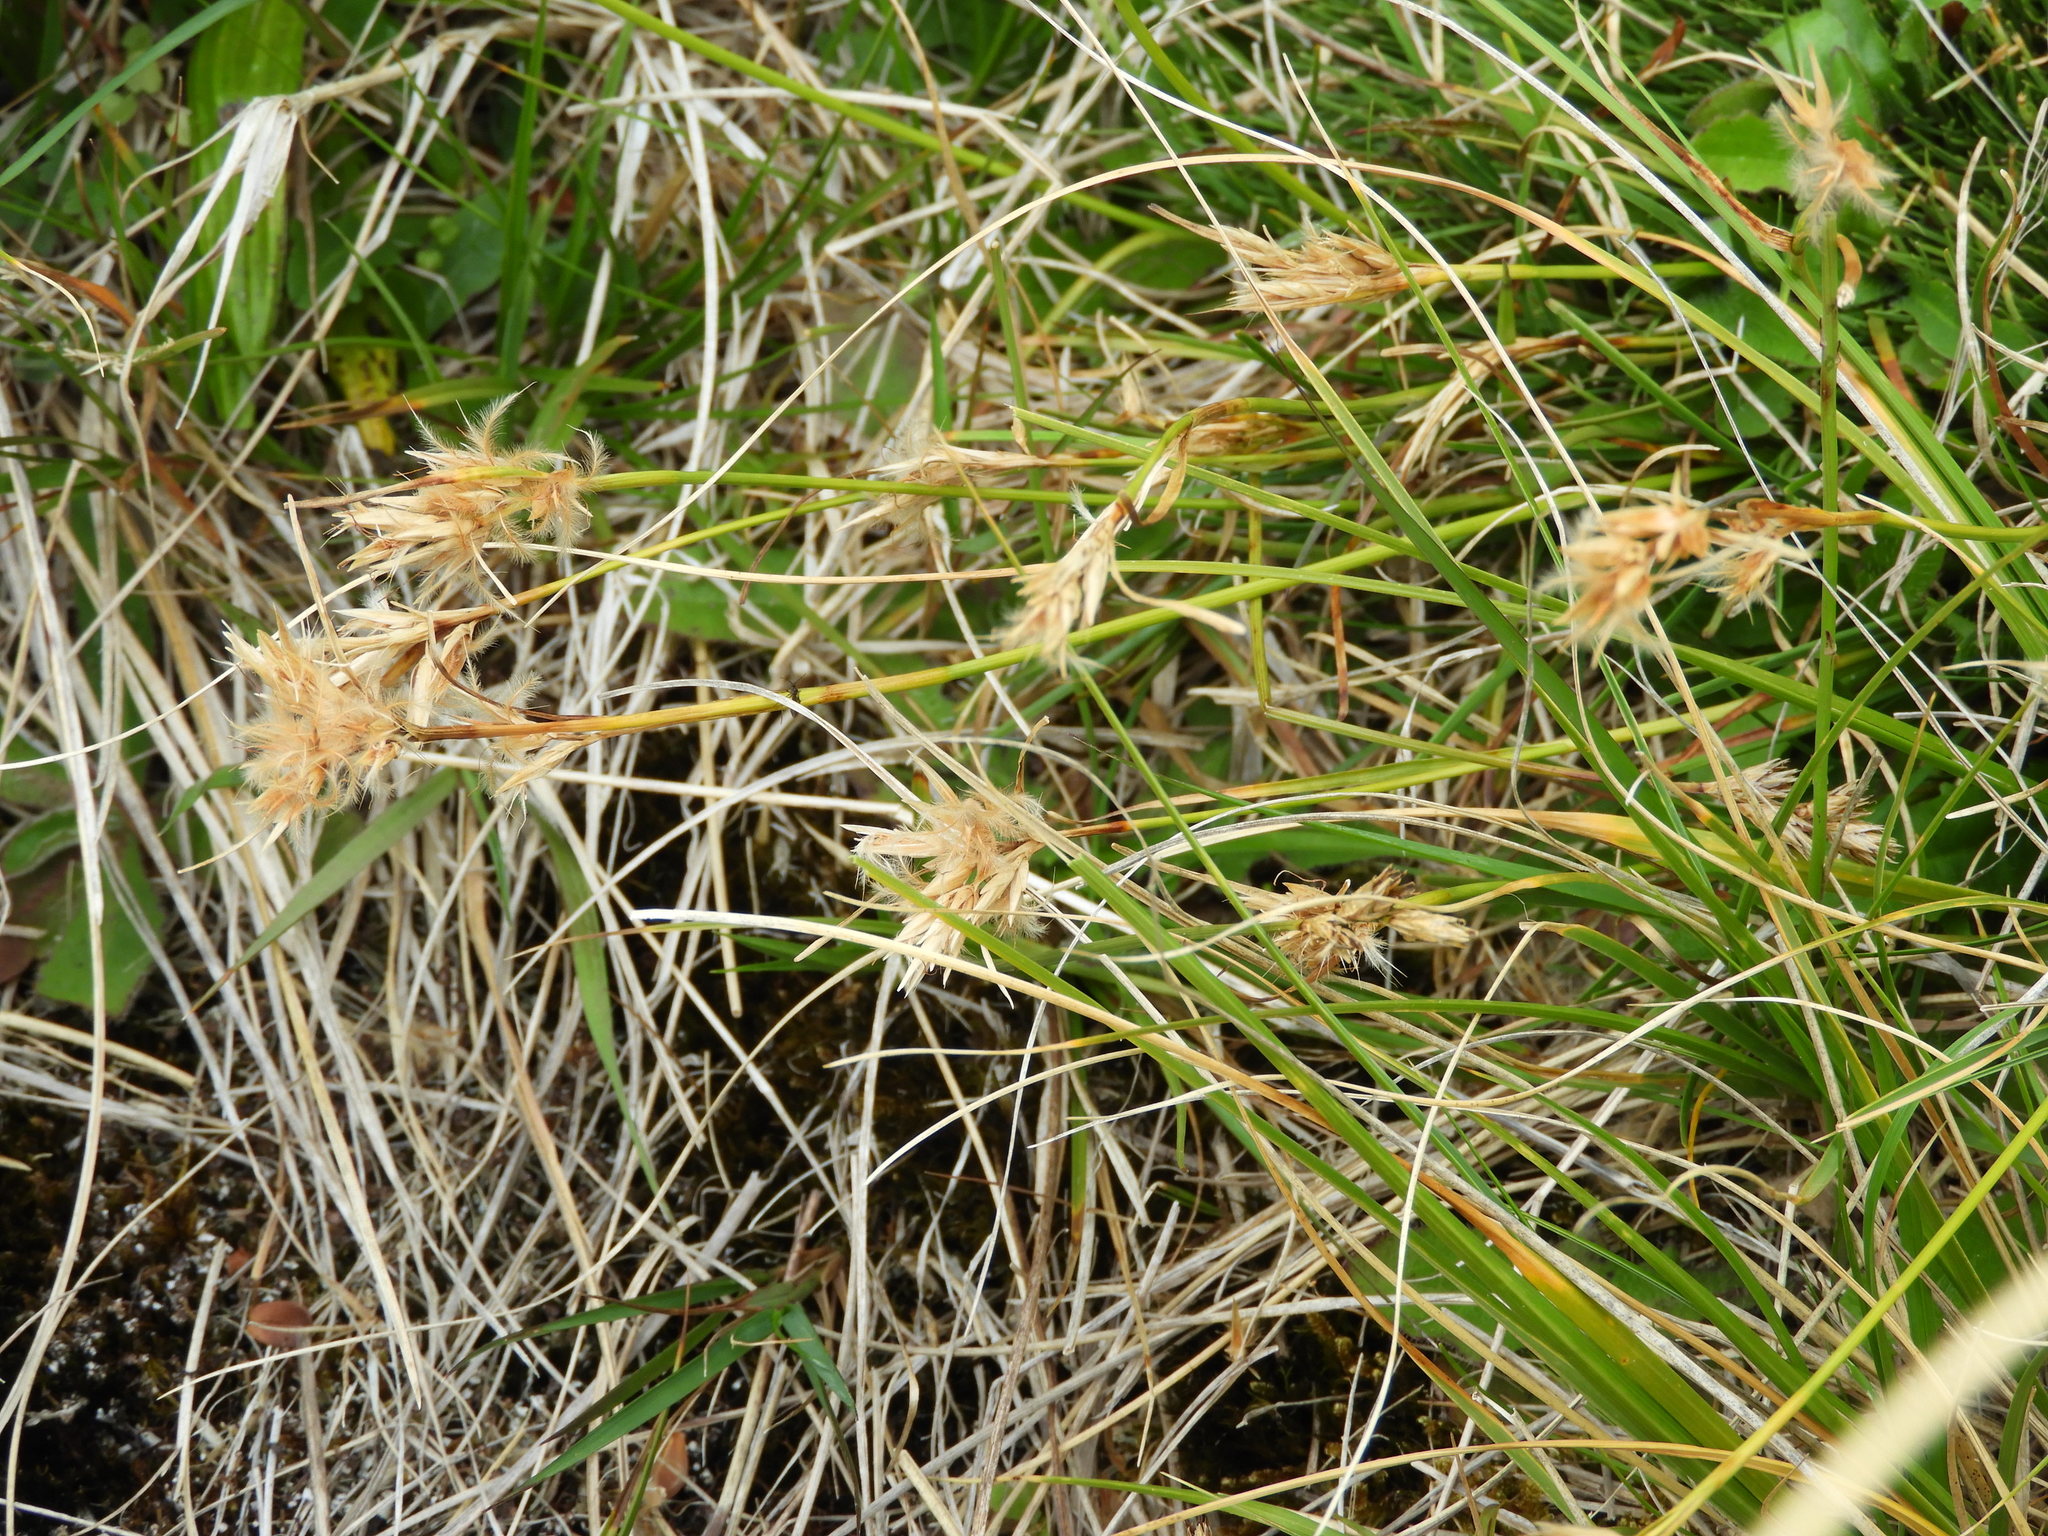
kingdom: Plantae
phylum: Tracheophyta
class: Liliopsida
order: Poales
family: Cyperaceae
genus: Carpha
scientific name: Carpha alpina
